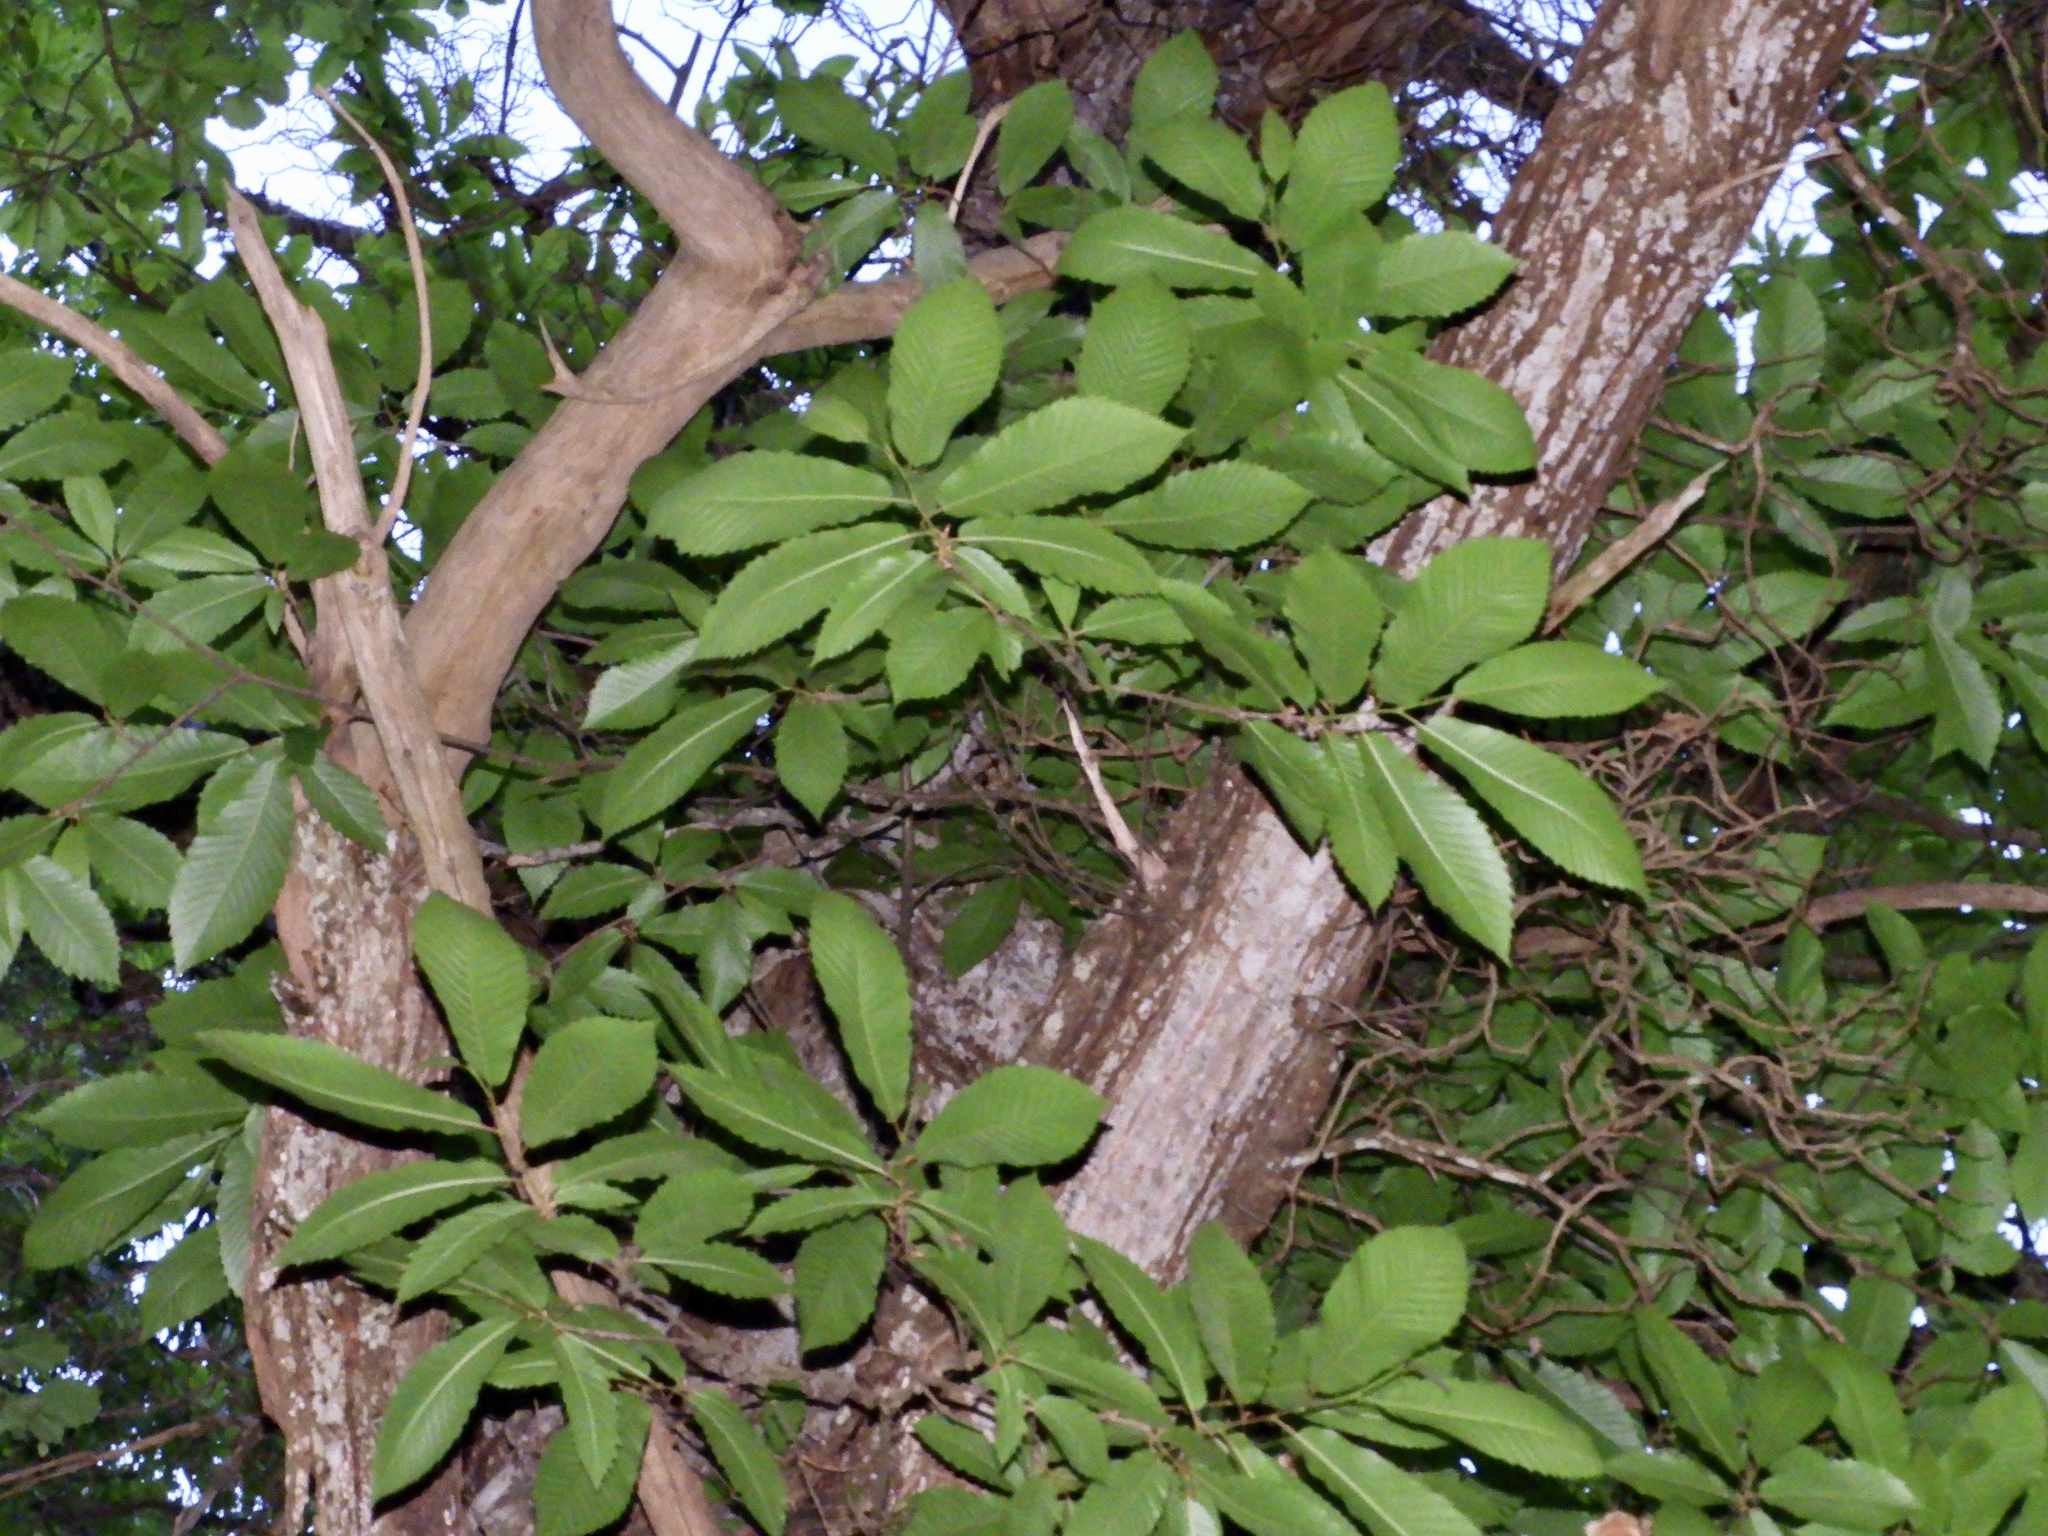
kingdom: Plantae
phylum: Tracheophyta
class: Magnoliopsida
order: Fagales
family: Fagaceae
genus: Castanea
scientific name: Castanea sativa
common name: Sweet chestnut
